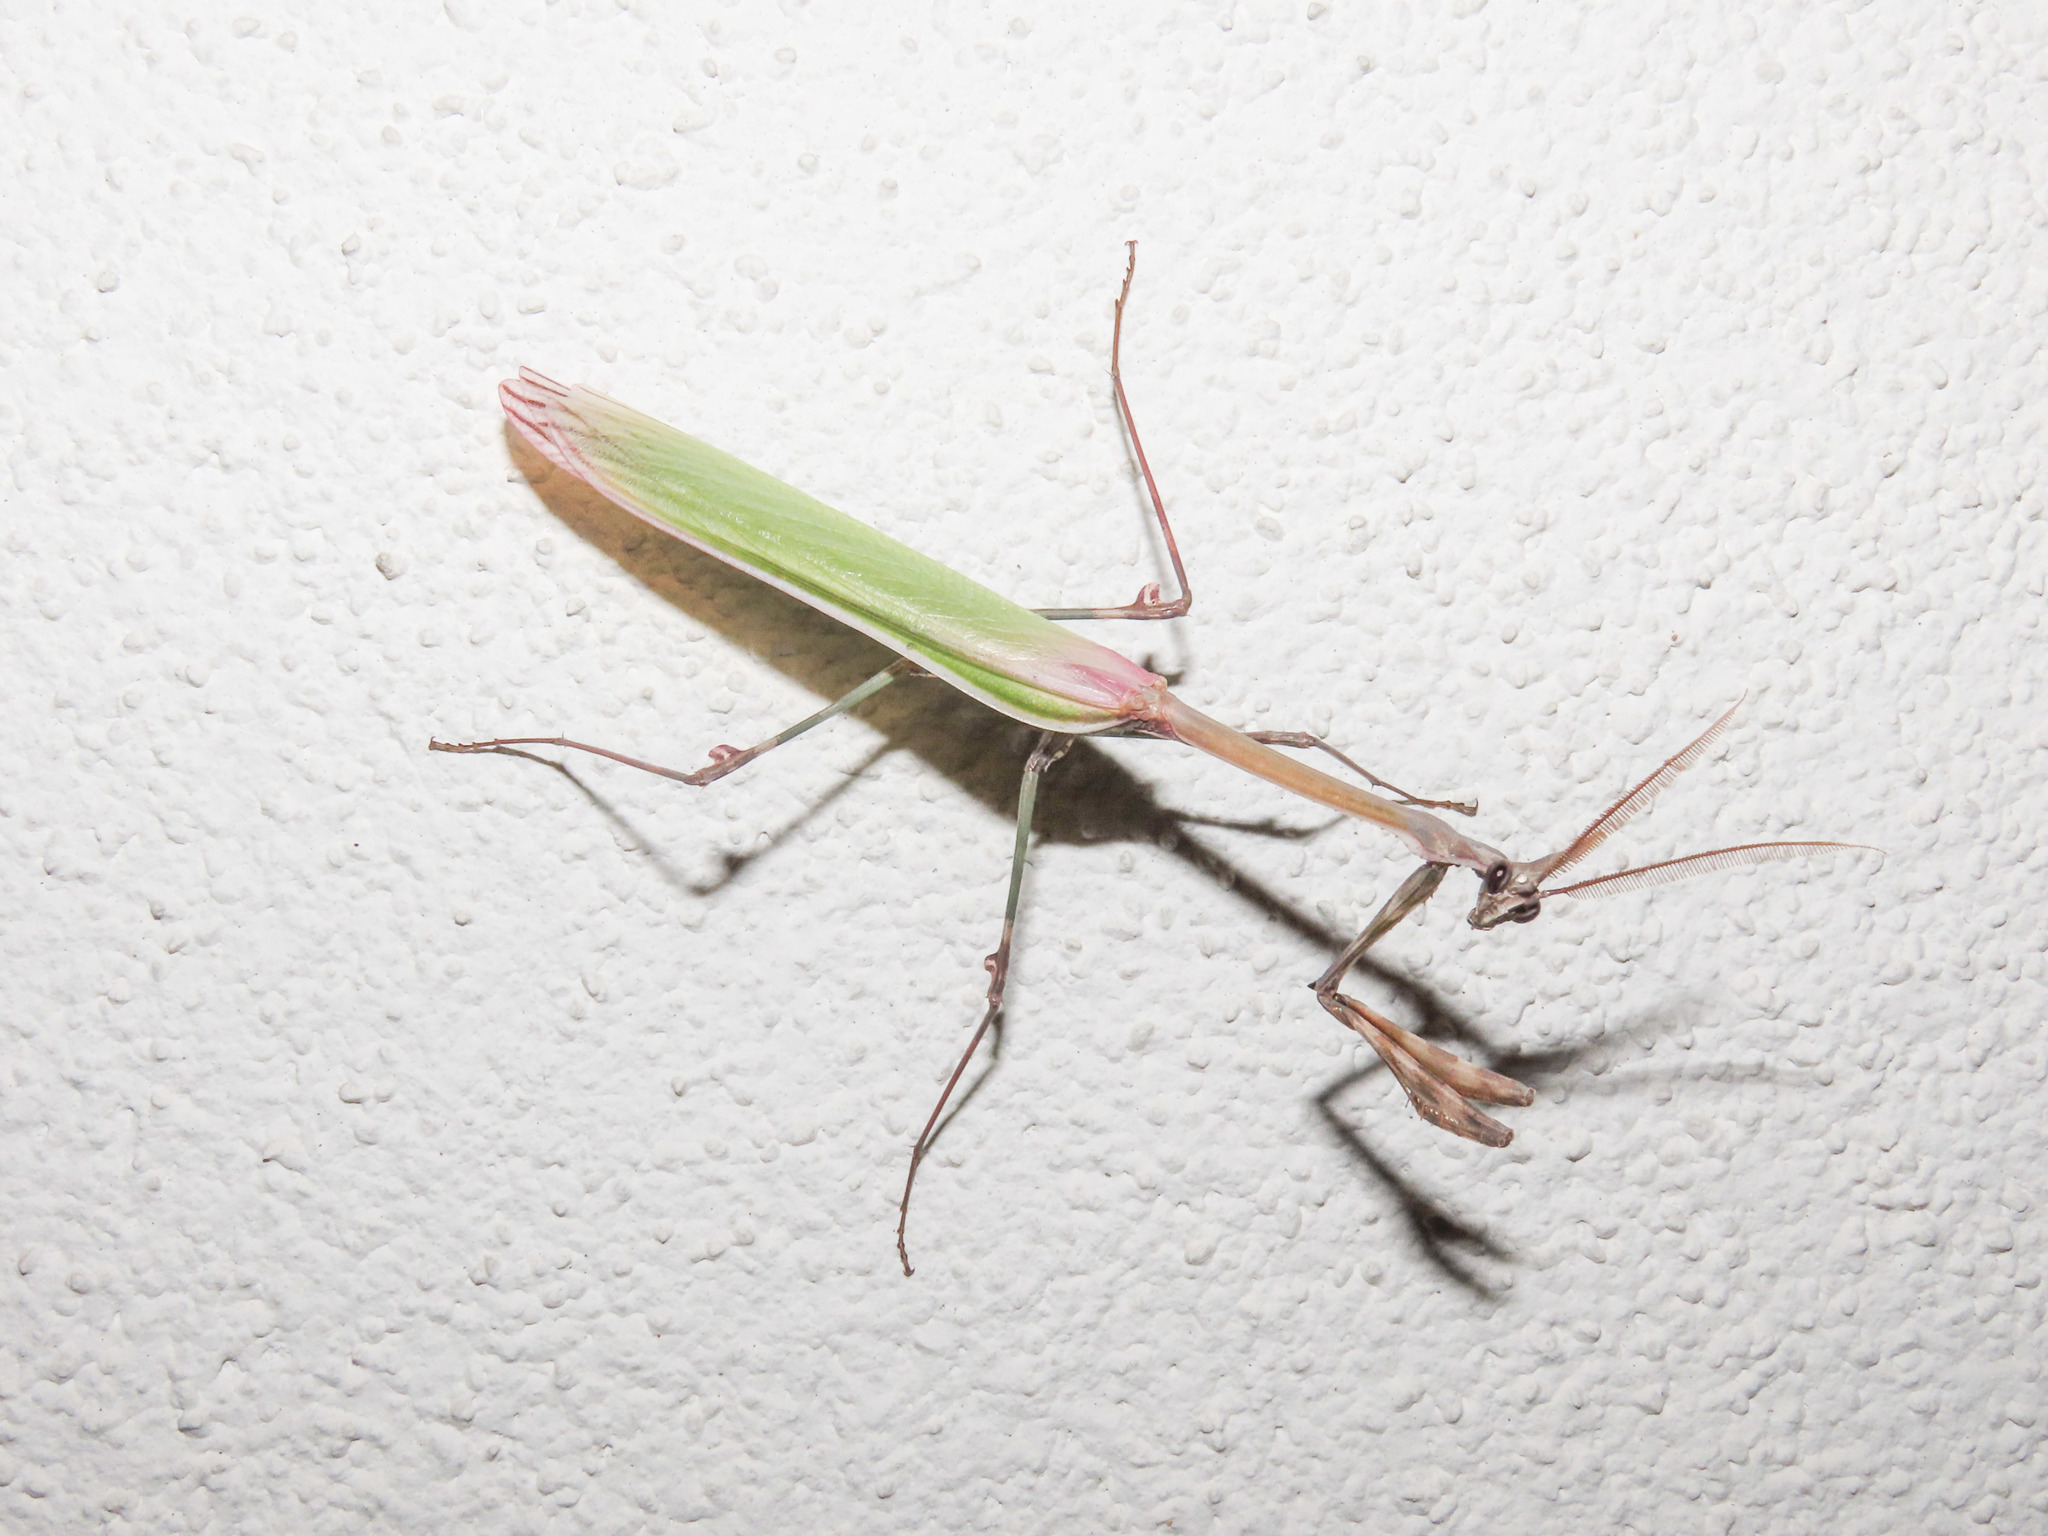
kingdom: Animalia
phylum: Arthropoda
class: Insecta
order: Mantodea
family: Empusidae
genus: Empusa
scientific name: Empusa pennata
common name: Conehead mantis
